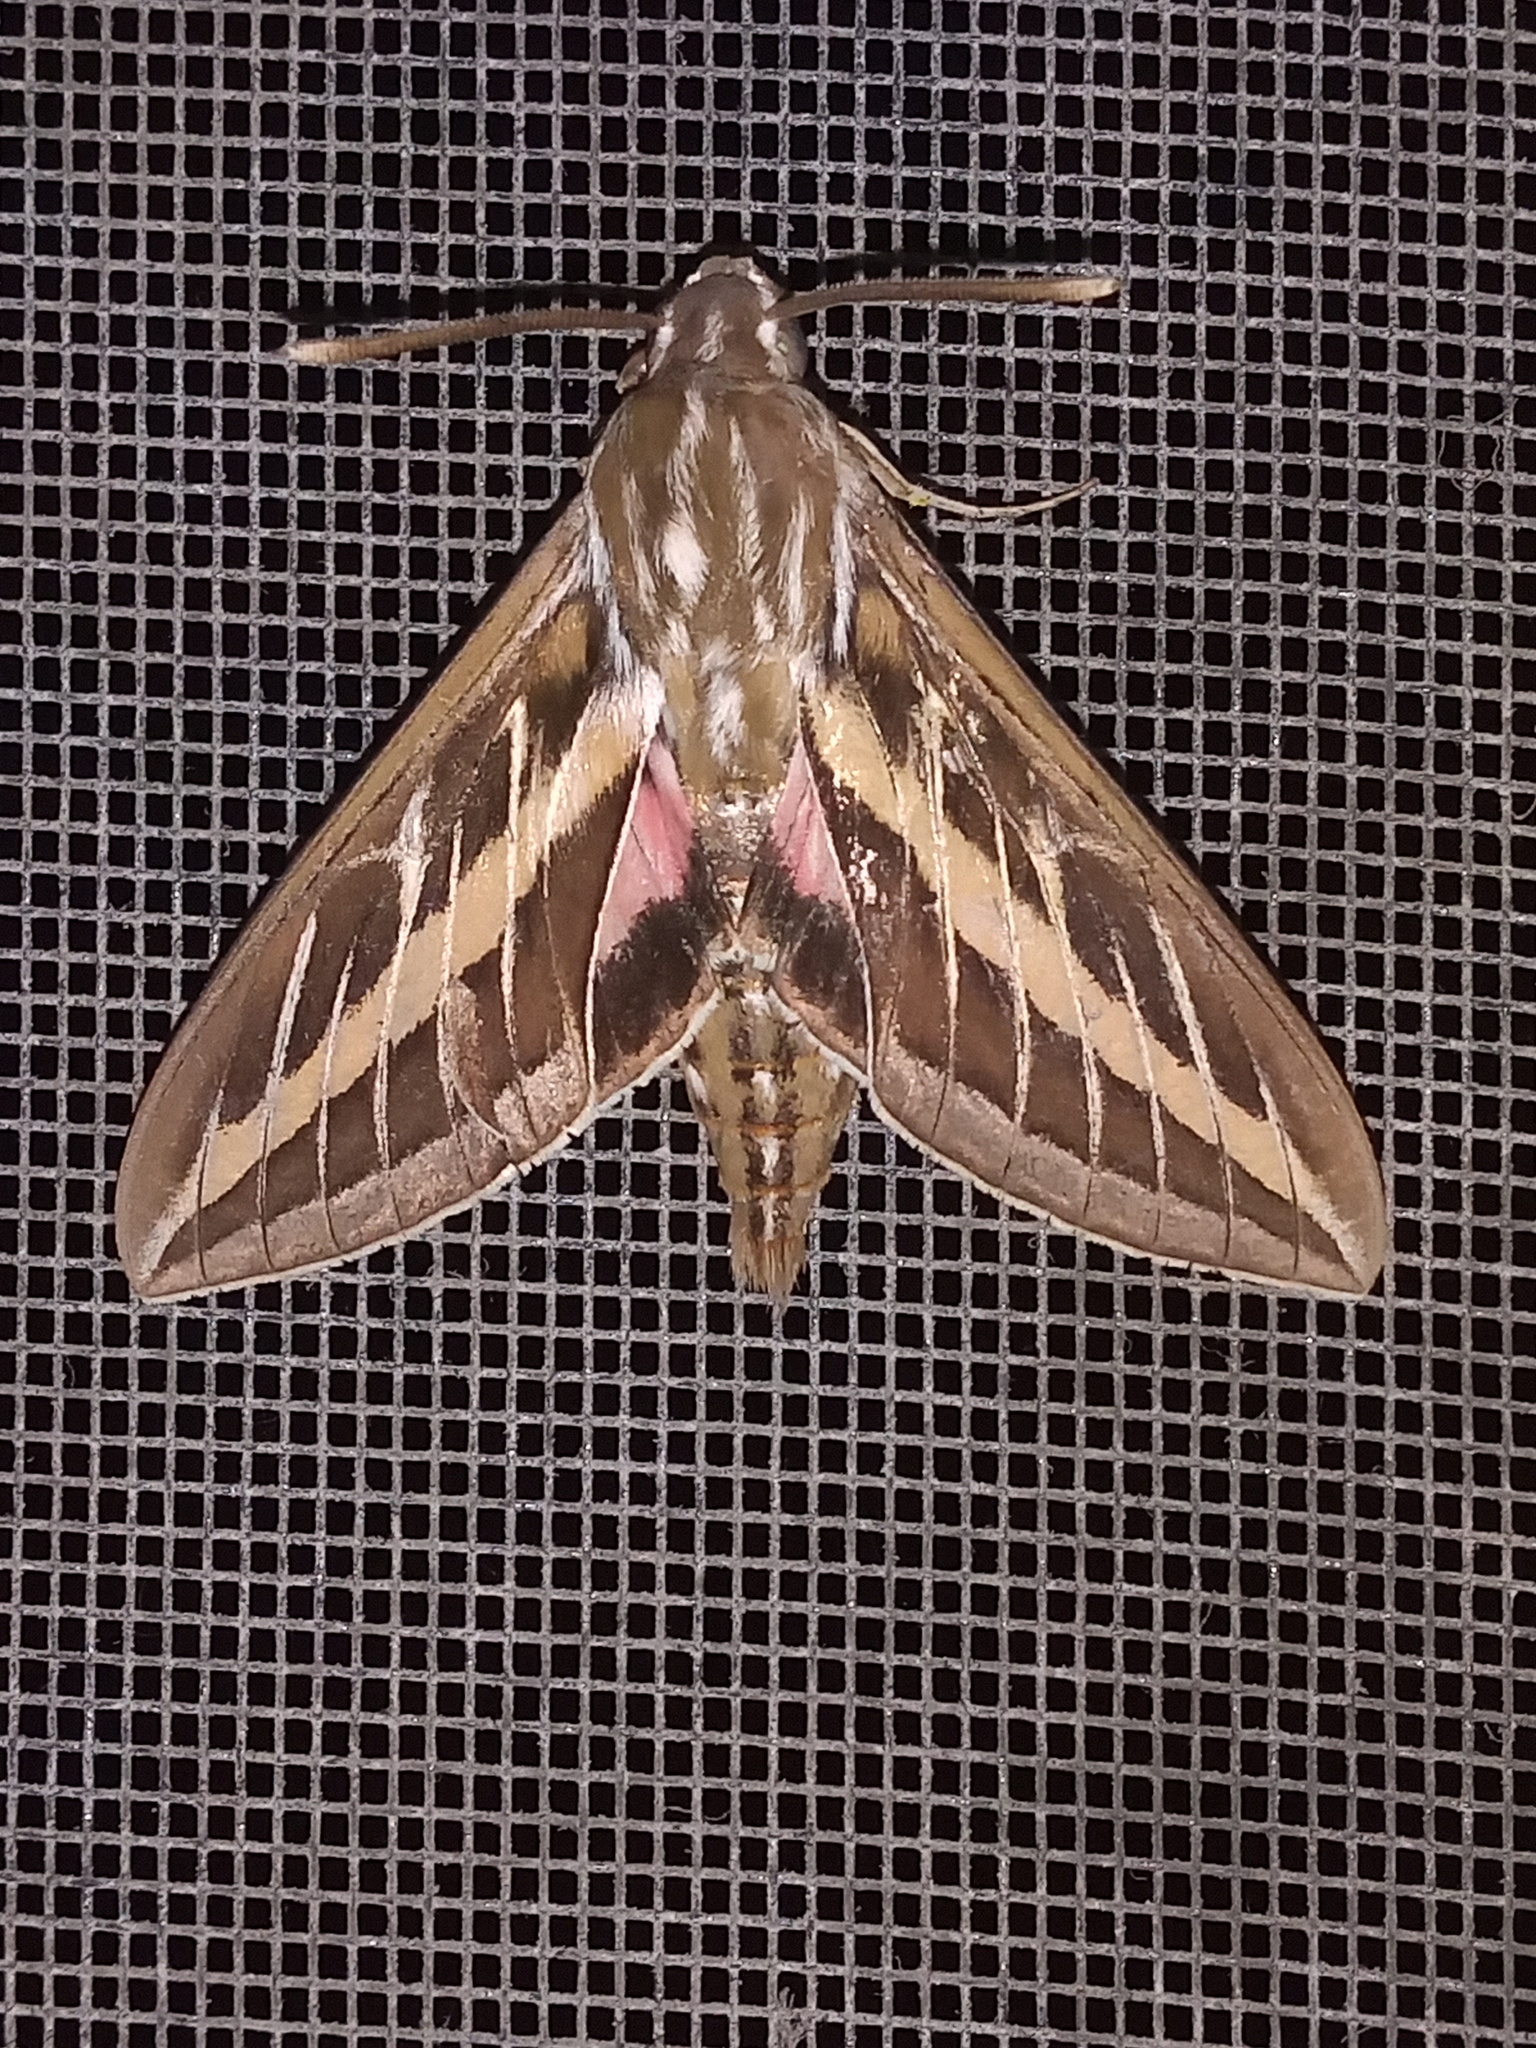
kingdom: Animalia
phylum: Arthropoda
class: Insecta
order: Lepidoptera
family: Sphingidae
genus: Hyles
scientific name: Hyles lineata
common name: White-lined sphinx
